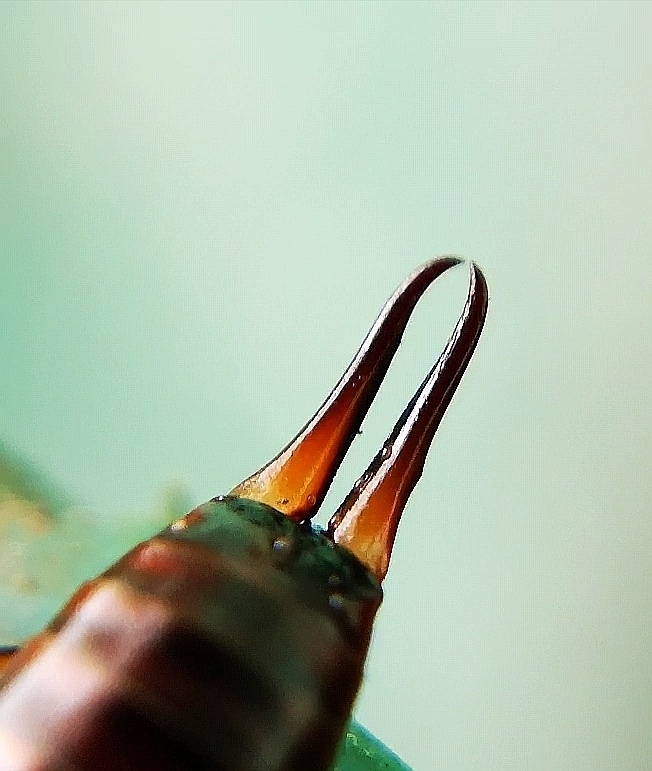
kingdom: Animalia
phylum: Arthropoda
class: Insecta
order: Dermaptera
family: Forficulidae
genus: Forficula
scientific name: Forficula
